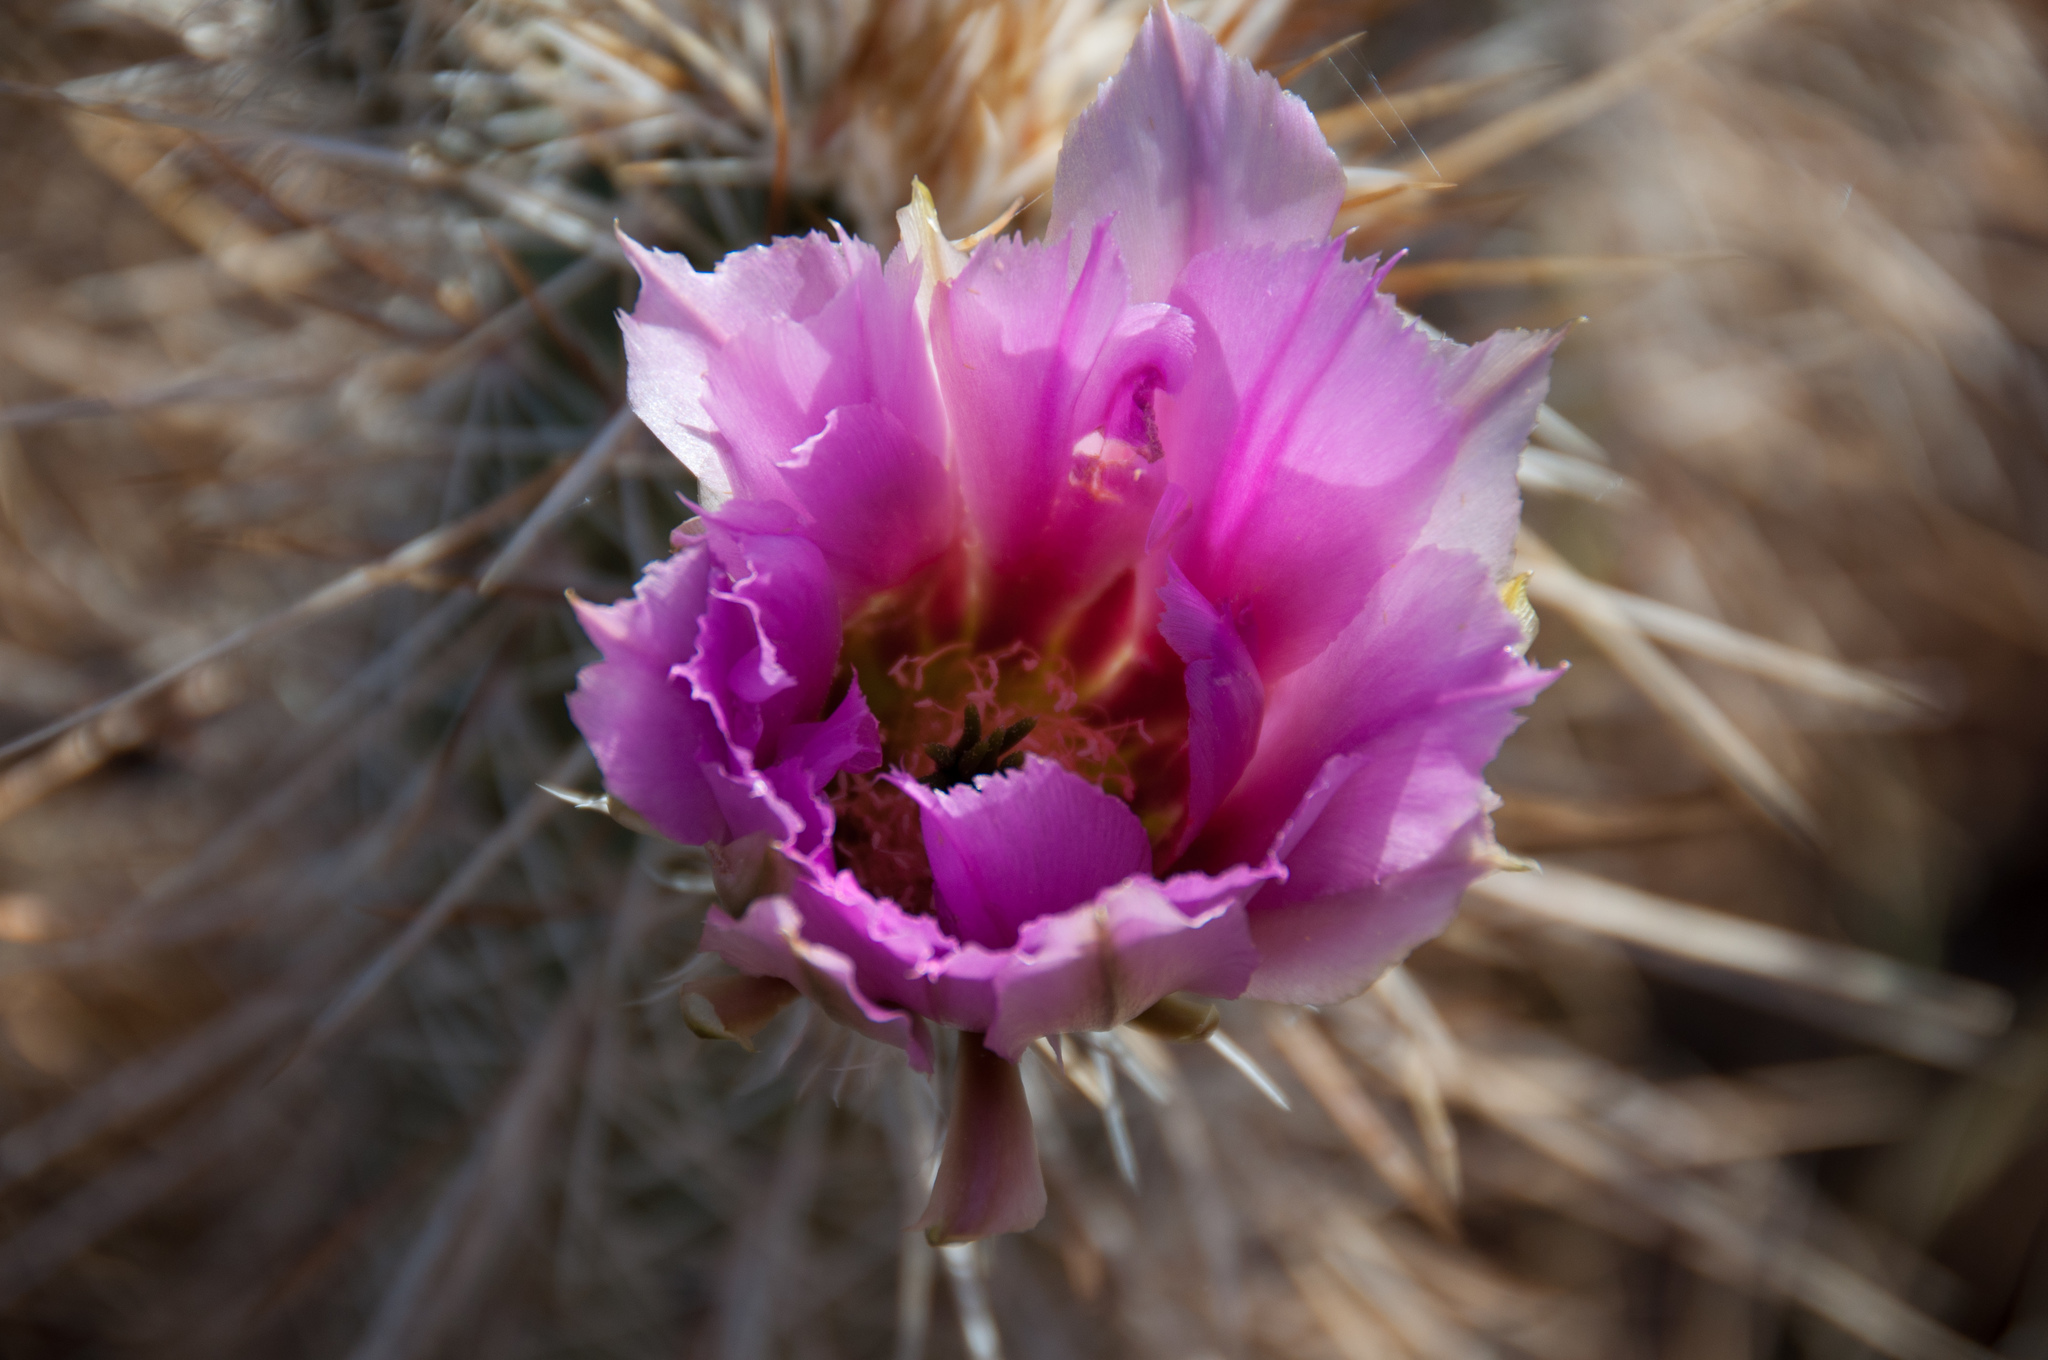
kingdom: Plantae
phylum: Tracheophyta
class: Magnoliopsida
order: Caryophyllales
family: Cactaceae
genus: Echinocereus
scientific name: Echinocereus engelmannii
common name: Engelmann's hedgehog cactus
